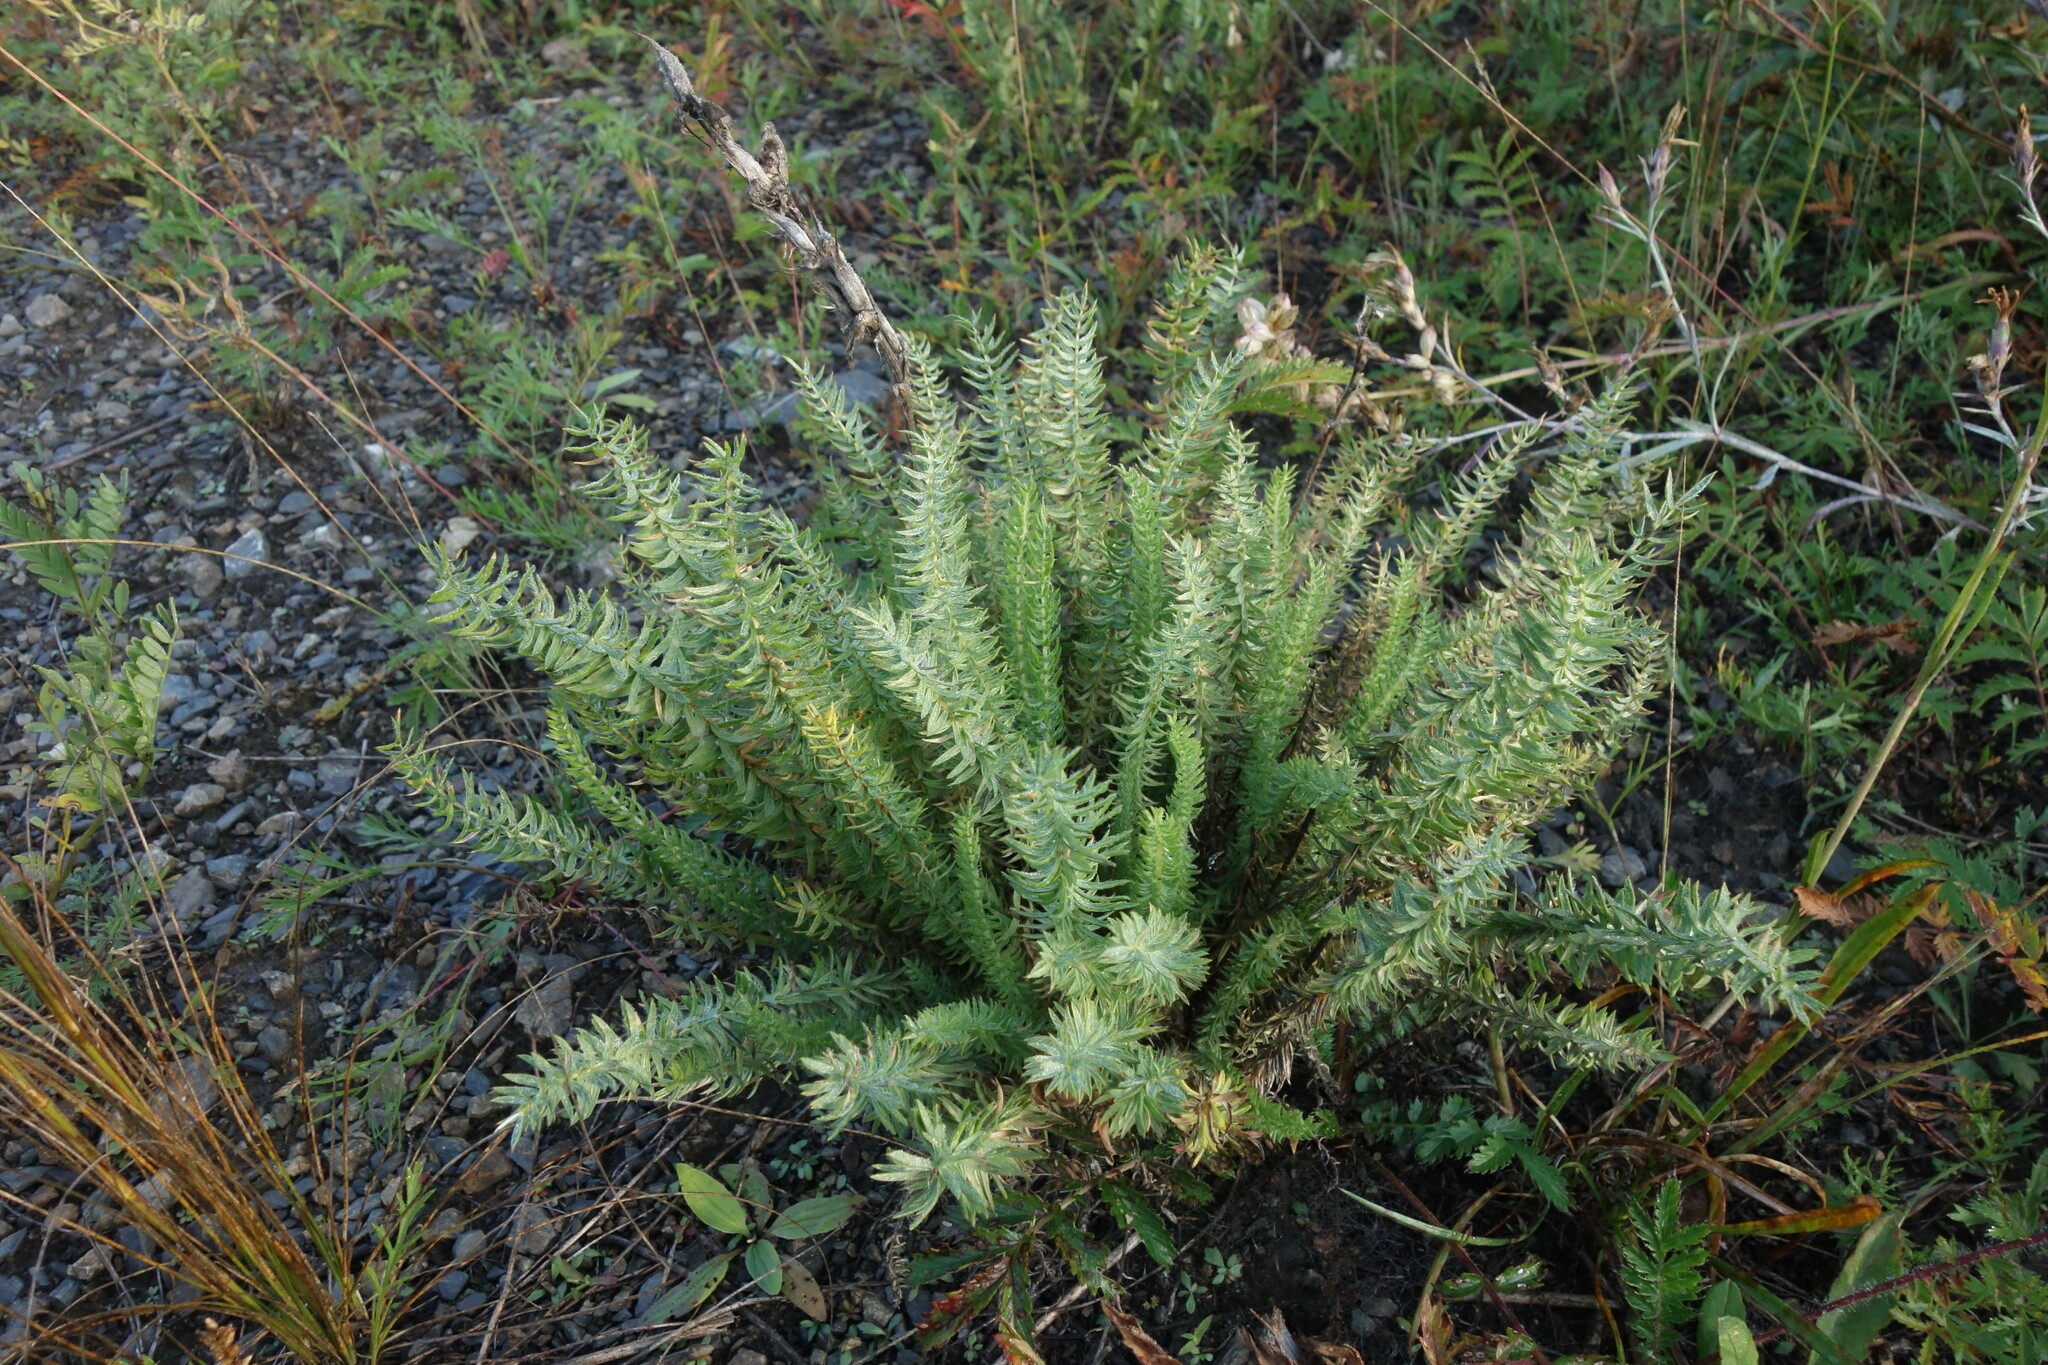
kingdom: Plantae
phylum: Tracheophyta
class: Magnoliopsida
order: Fabales
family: Fabaceae
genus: Oxytropis
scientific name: Oxytropis myriophylla
